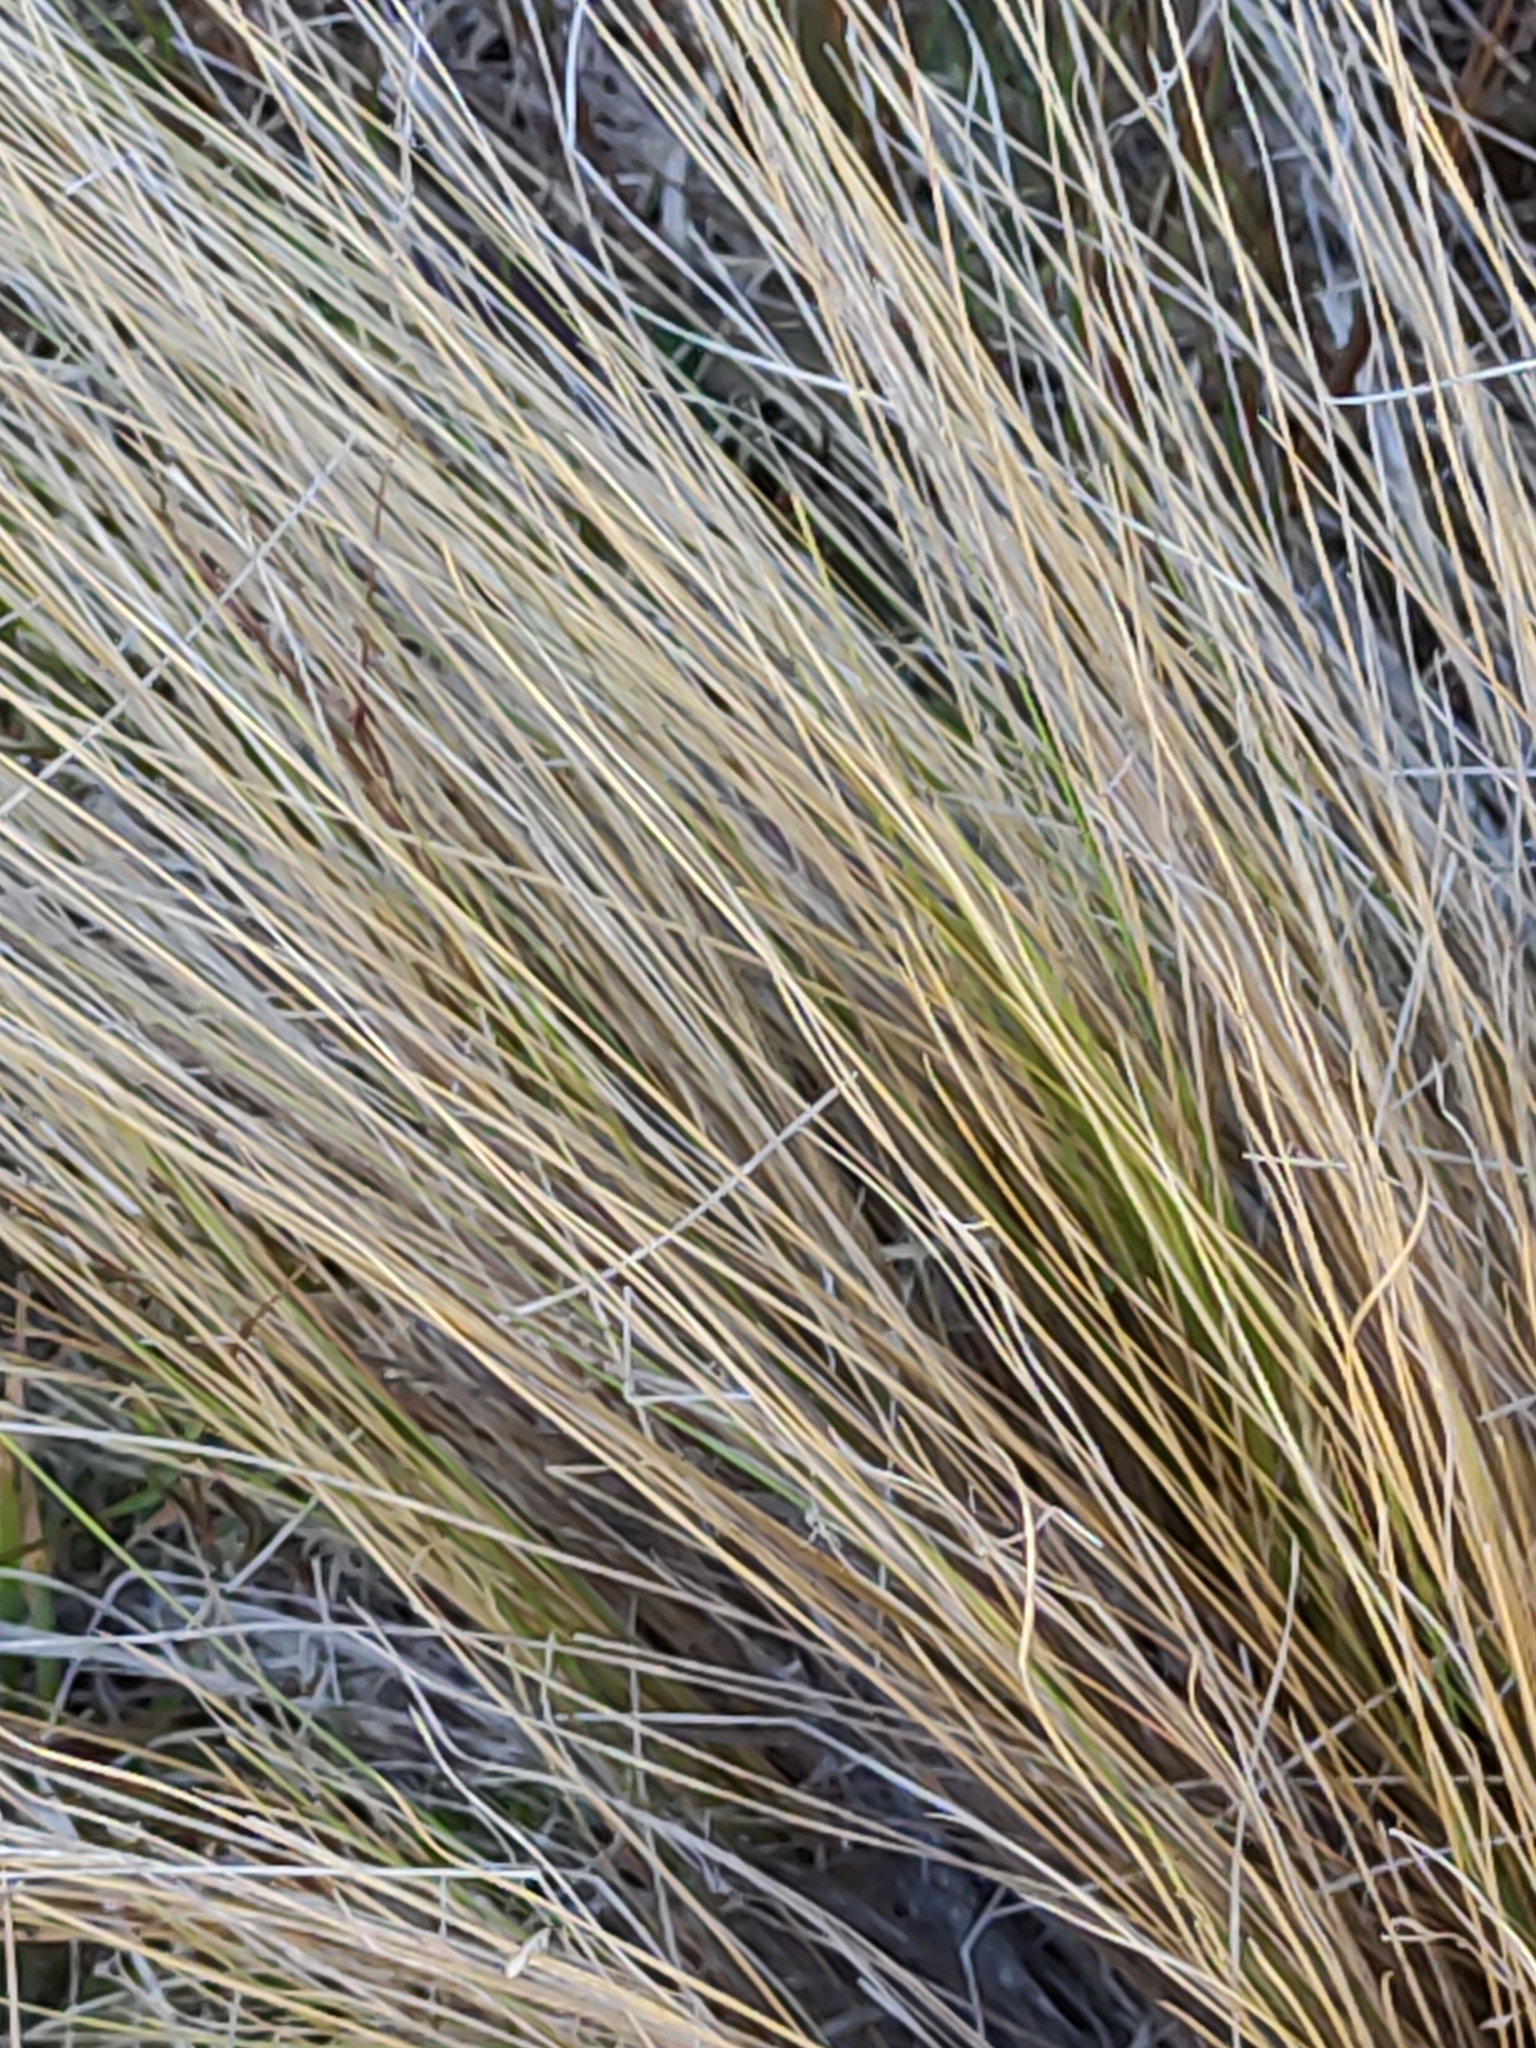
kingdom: Plantae
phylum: Tracheophyta
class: Liliopsida
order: Poales
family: Poaceae
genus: Poa
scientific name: Poa cita
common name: Silver tussock
